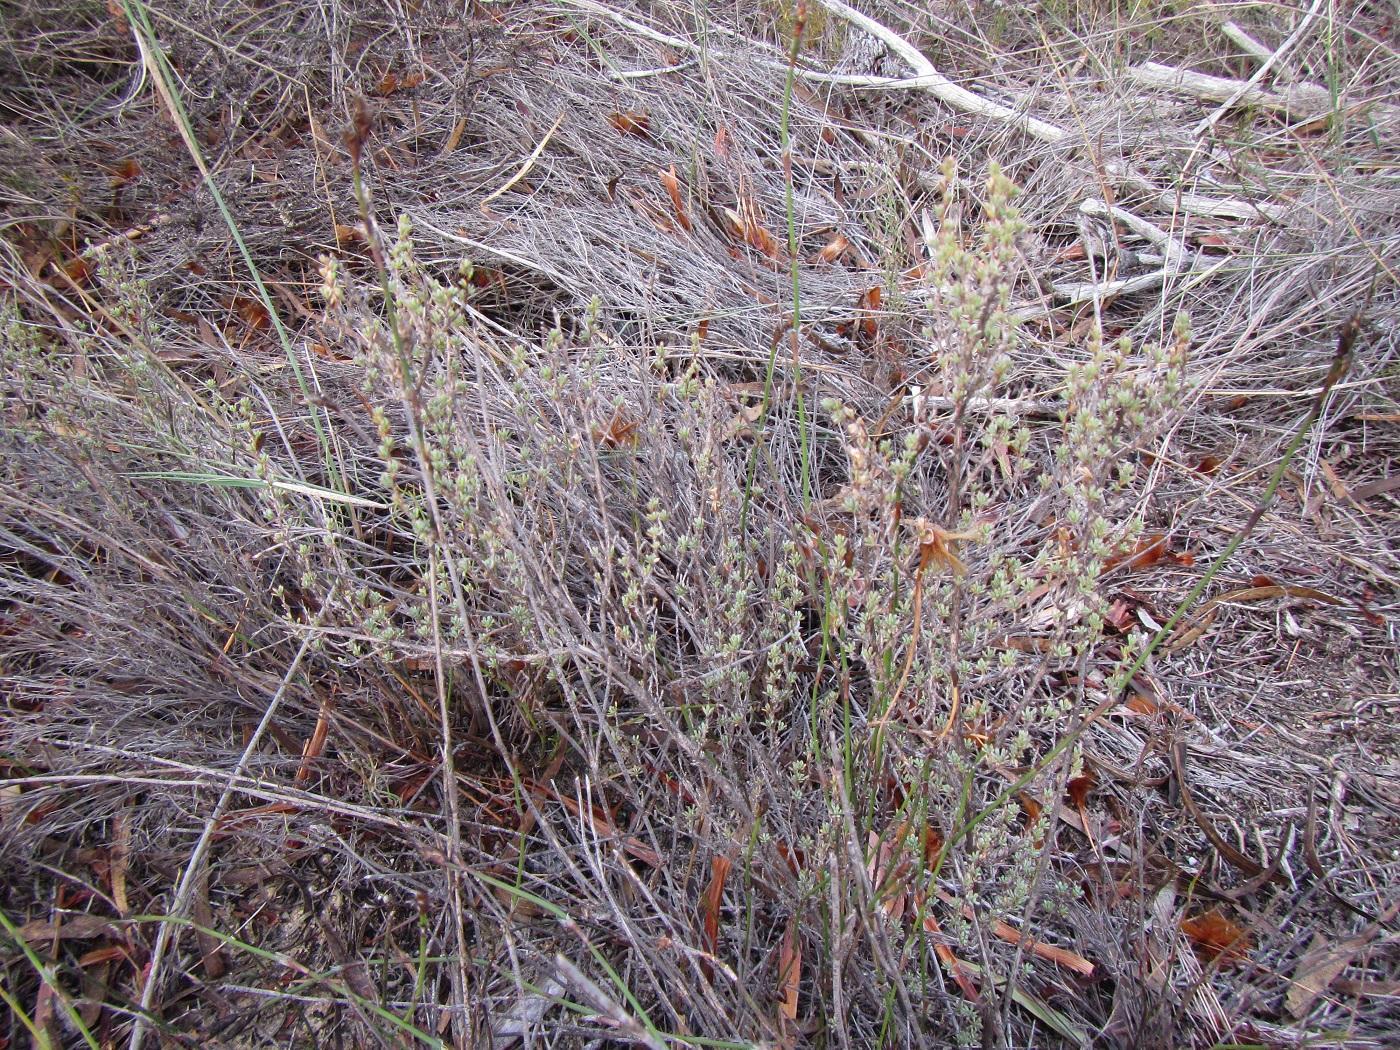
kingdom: Plantae
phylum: Tracheophyta
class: Magnoliopsida
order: Rosales
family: Rosaceae
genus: Cliffortia
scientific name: Cliffortia obovata
